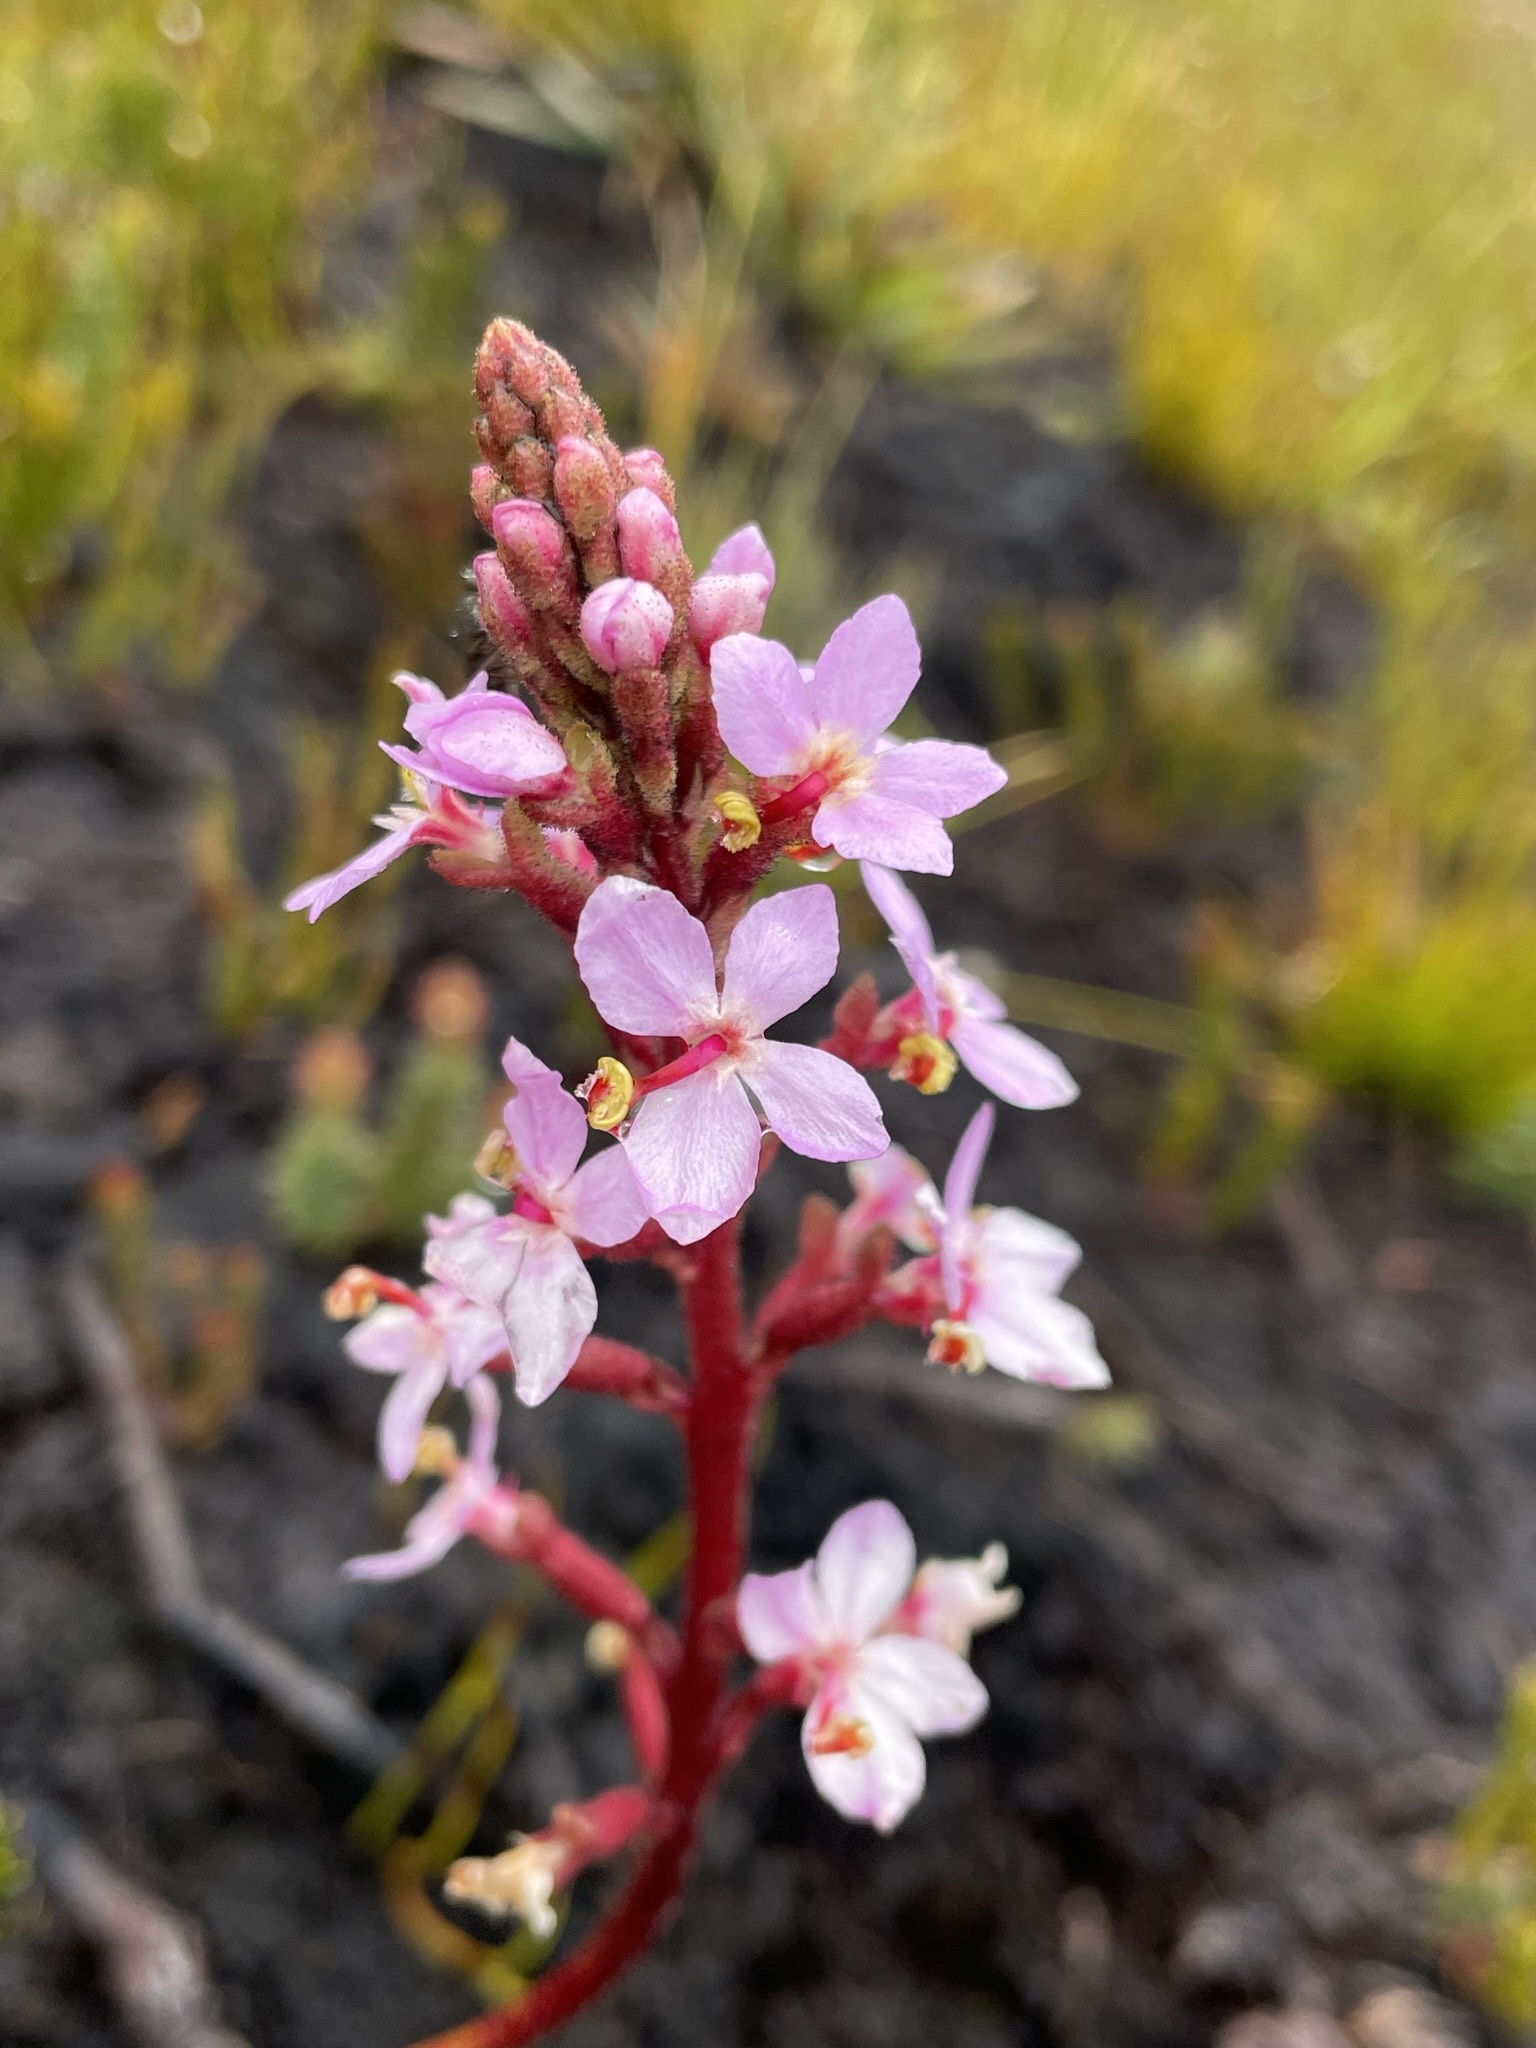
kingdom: Plantae
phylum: Tracheophyta
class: Magnoliopsida
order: Asterales
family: Stylidiaceae
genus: Stylidium
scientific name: Stylidium graminifolium
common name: Grass triggerplant
